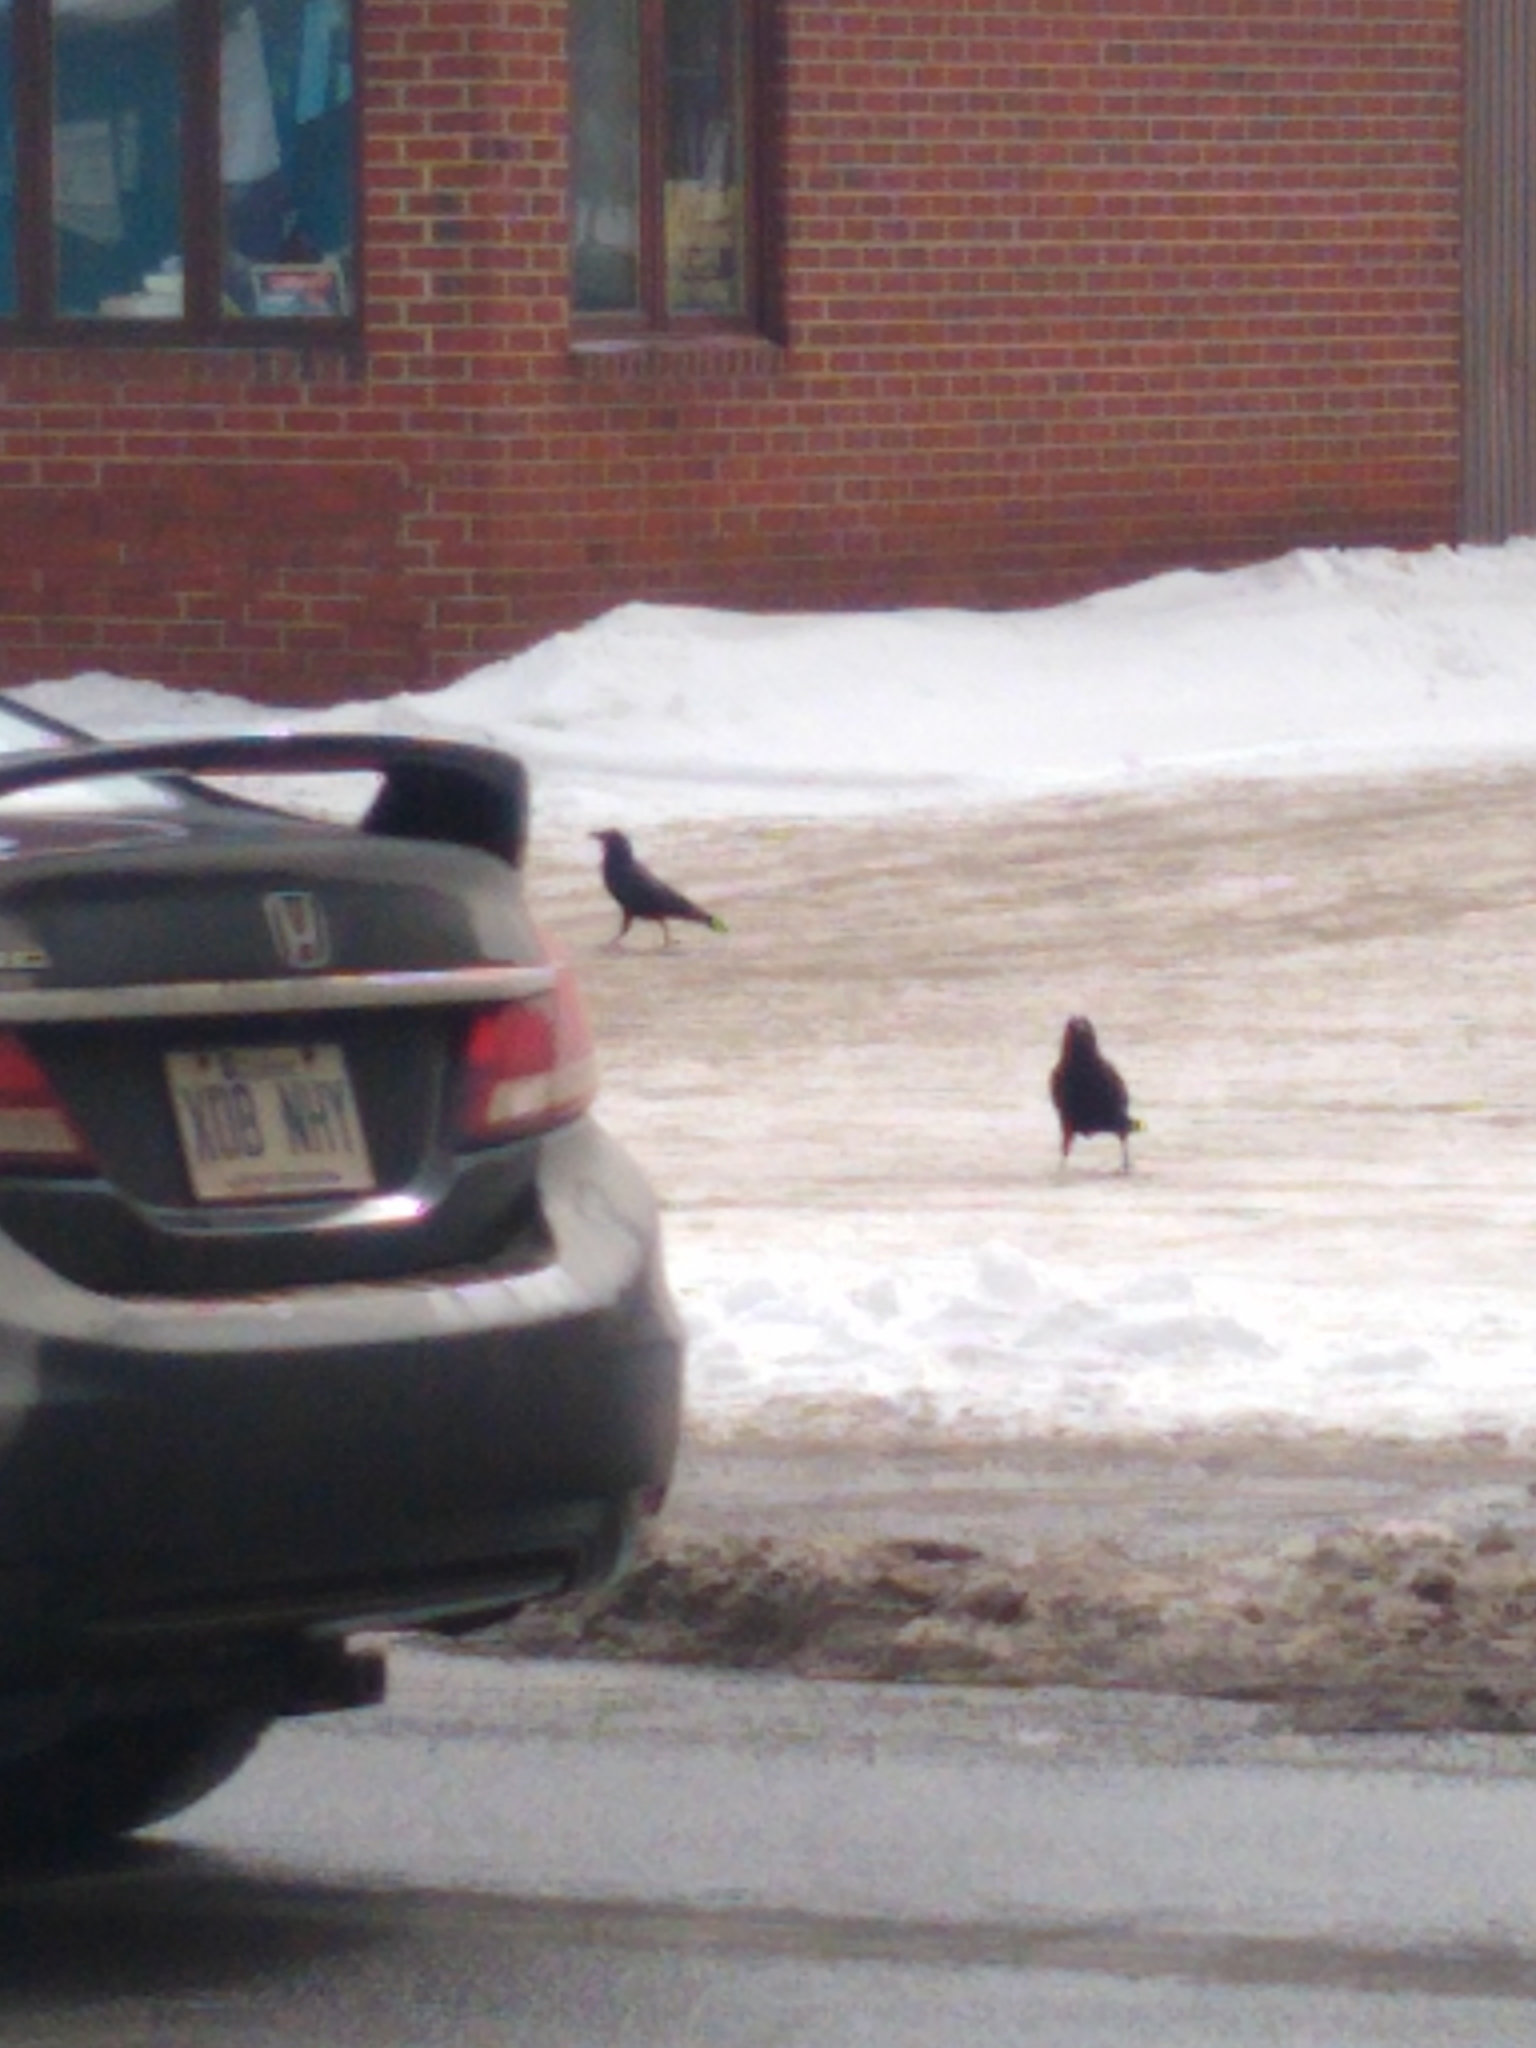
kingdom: Animalia
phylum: Chordata
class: Aves
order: Passeriformes
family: Corvidae
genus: Corvus
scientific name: Corvus brachyrhynchos
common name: American crow
